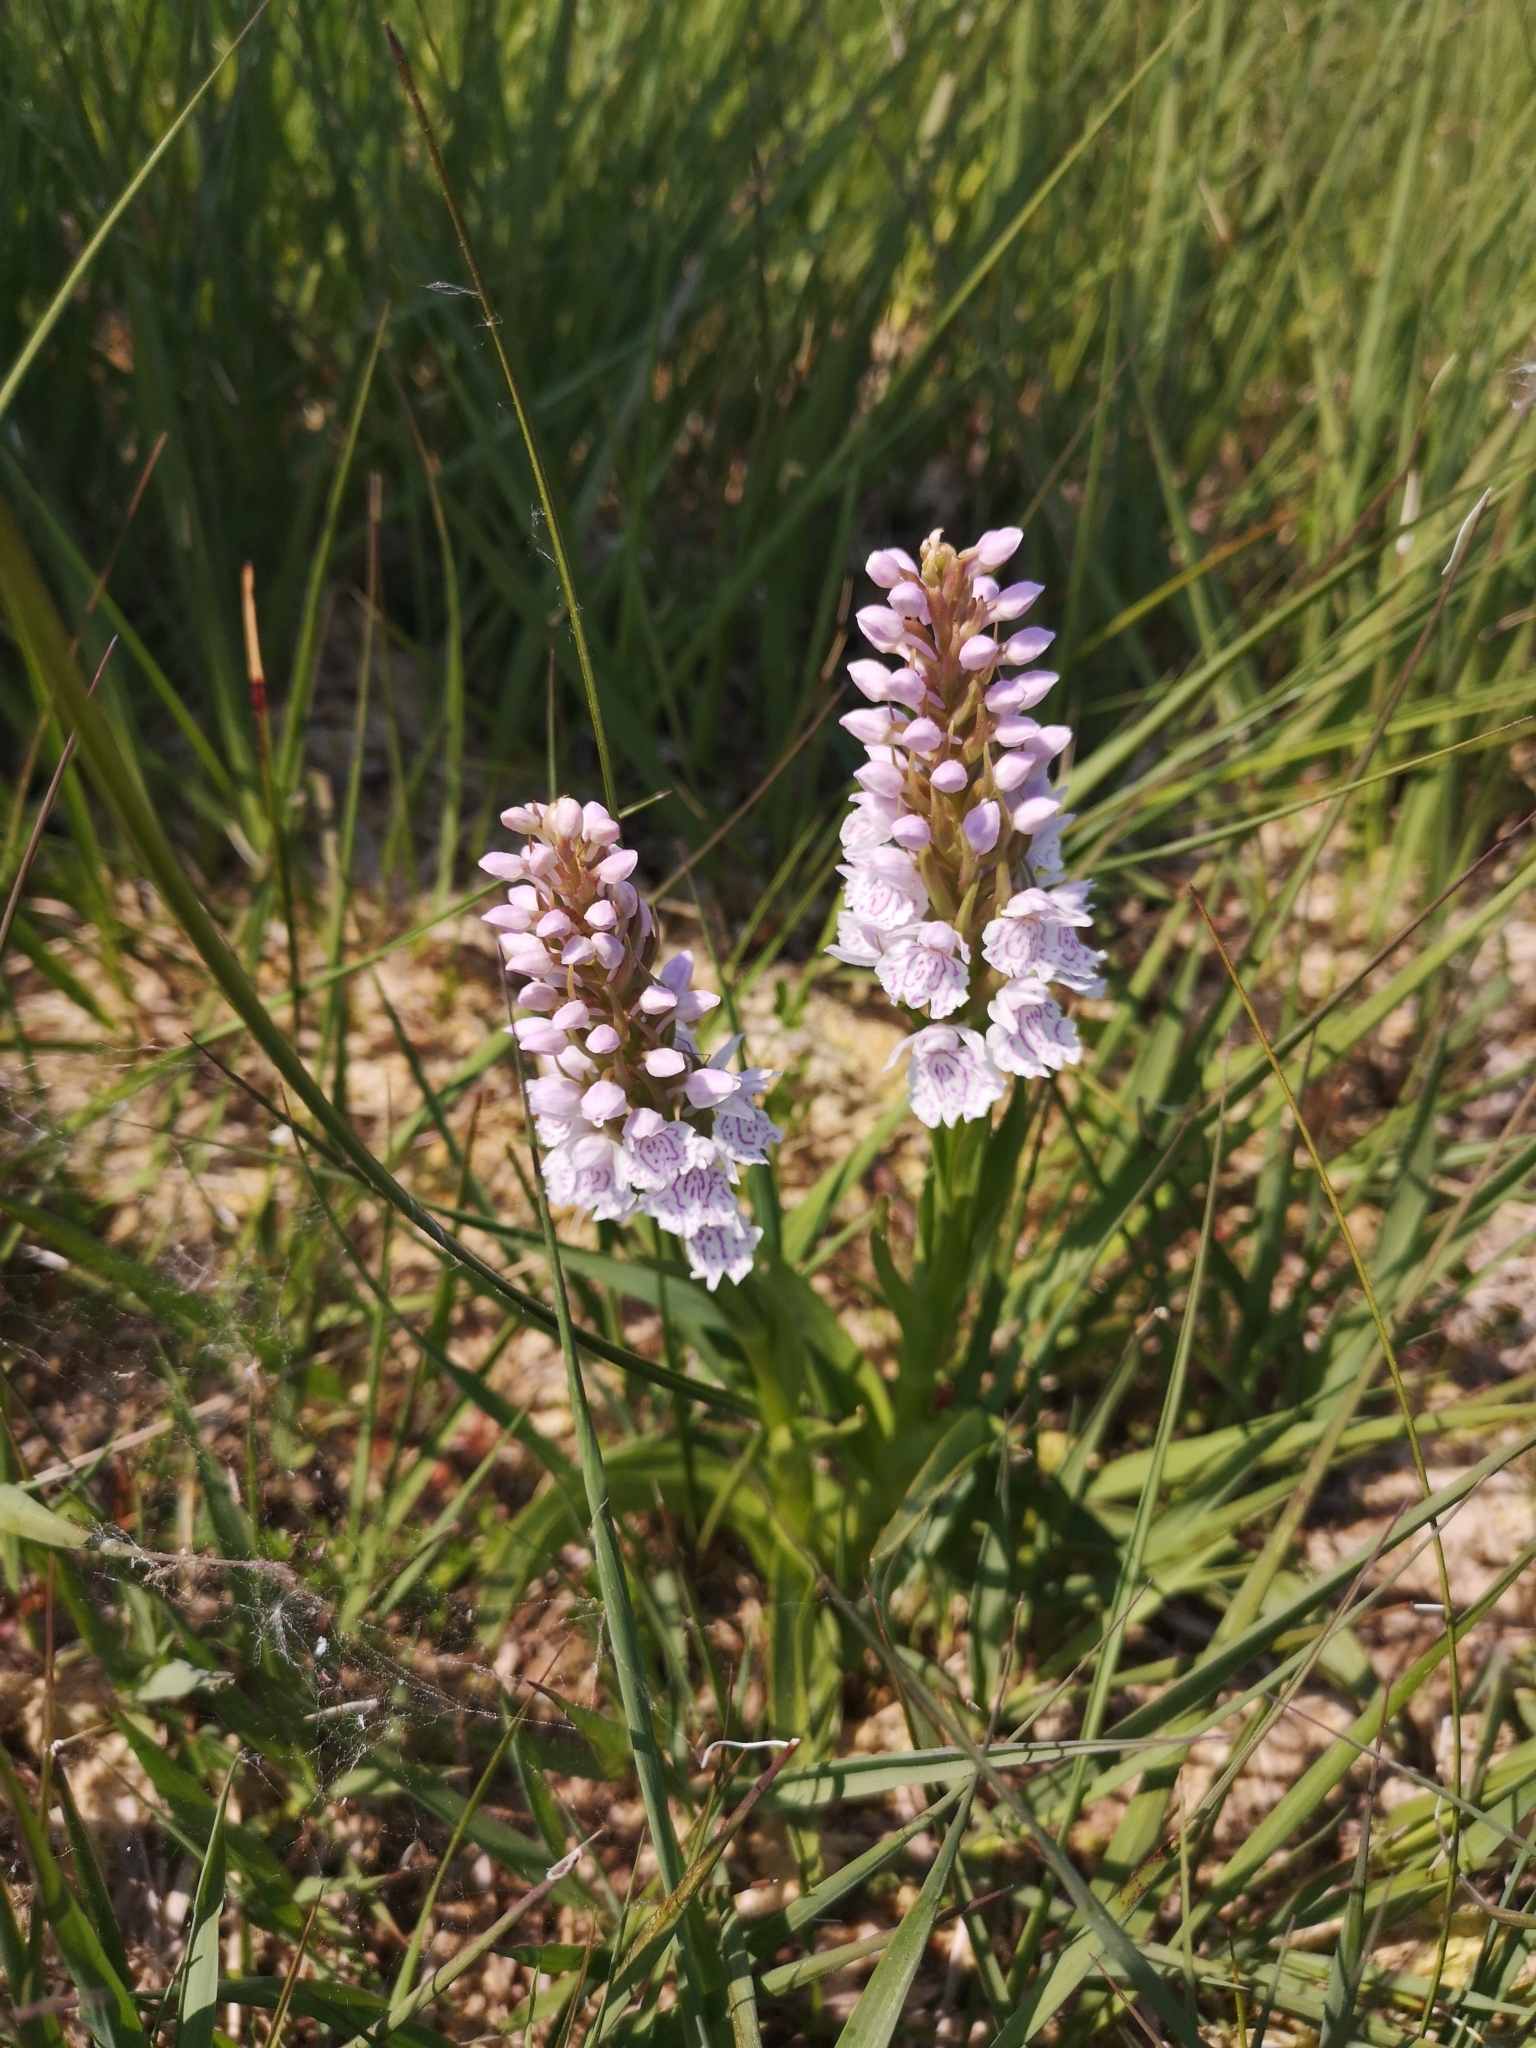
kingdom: Plantae
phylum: Tracheophyta
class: Liliopsida
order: Asparagales
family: Orchidaceae
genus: Dactylorhiza
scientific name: Dactylorhiza maculata
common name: Heath spotted-orchid
